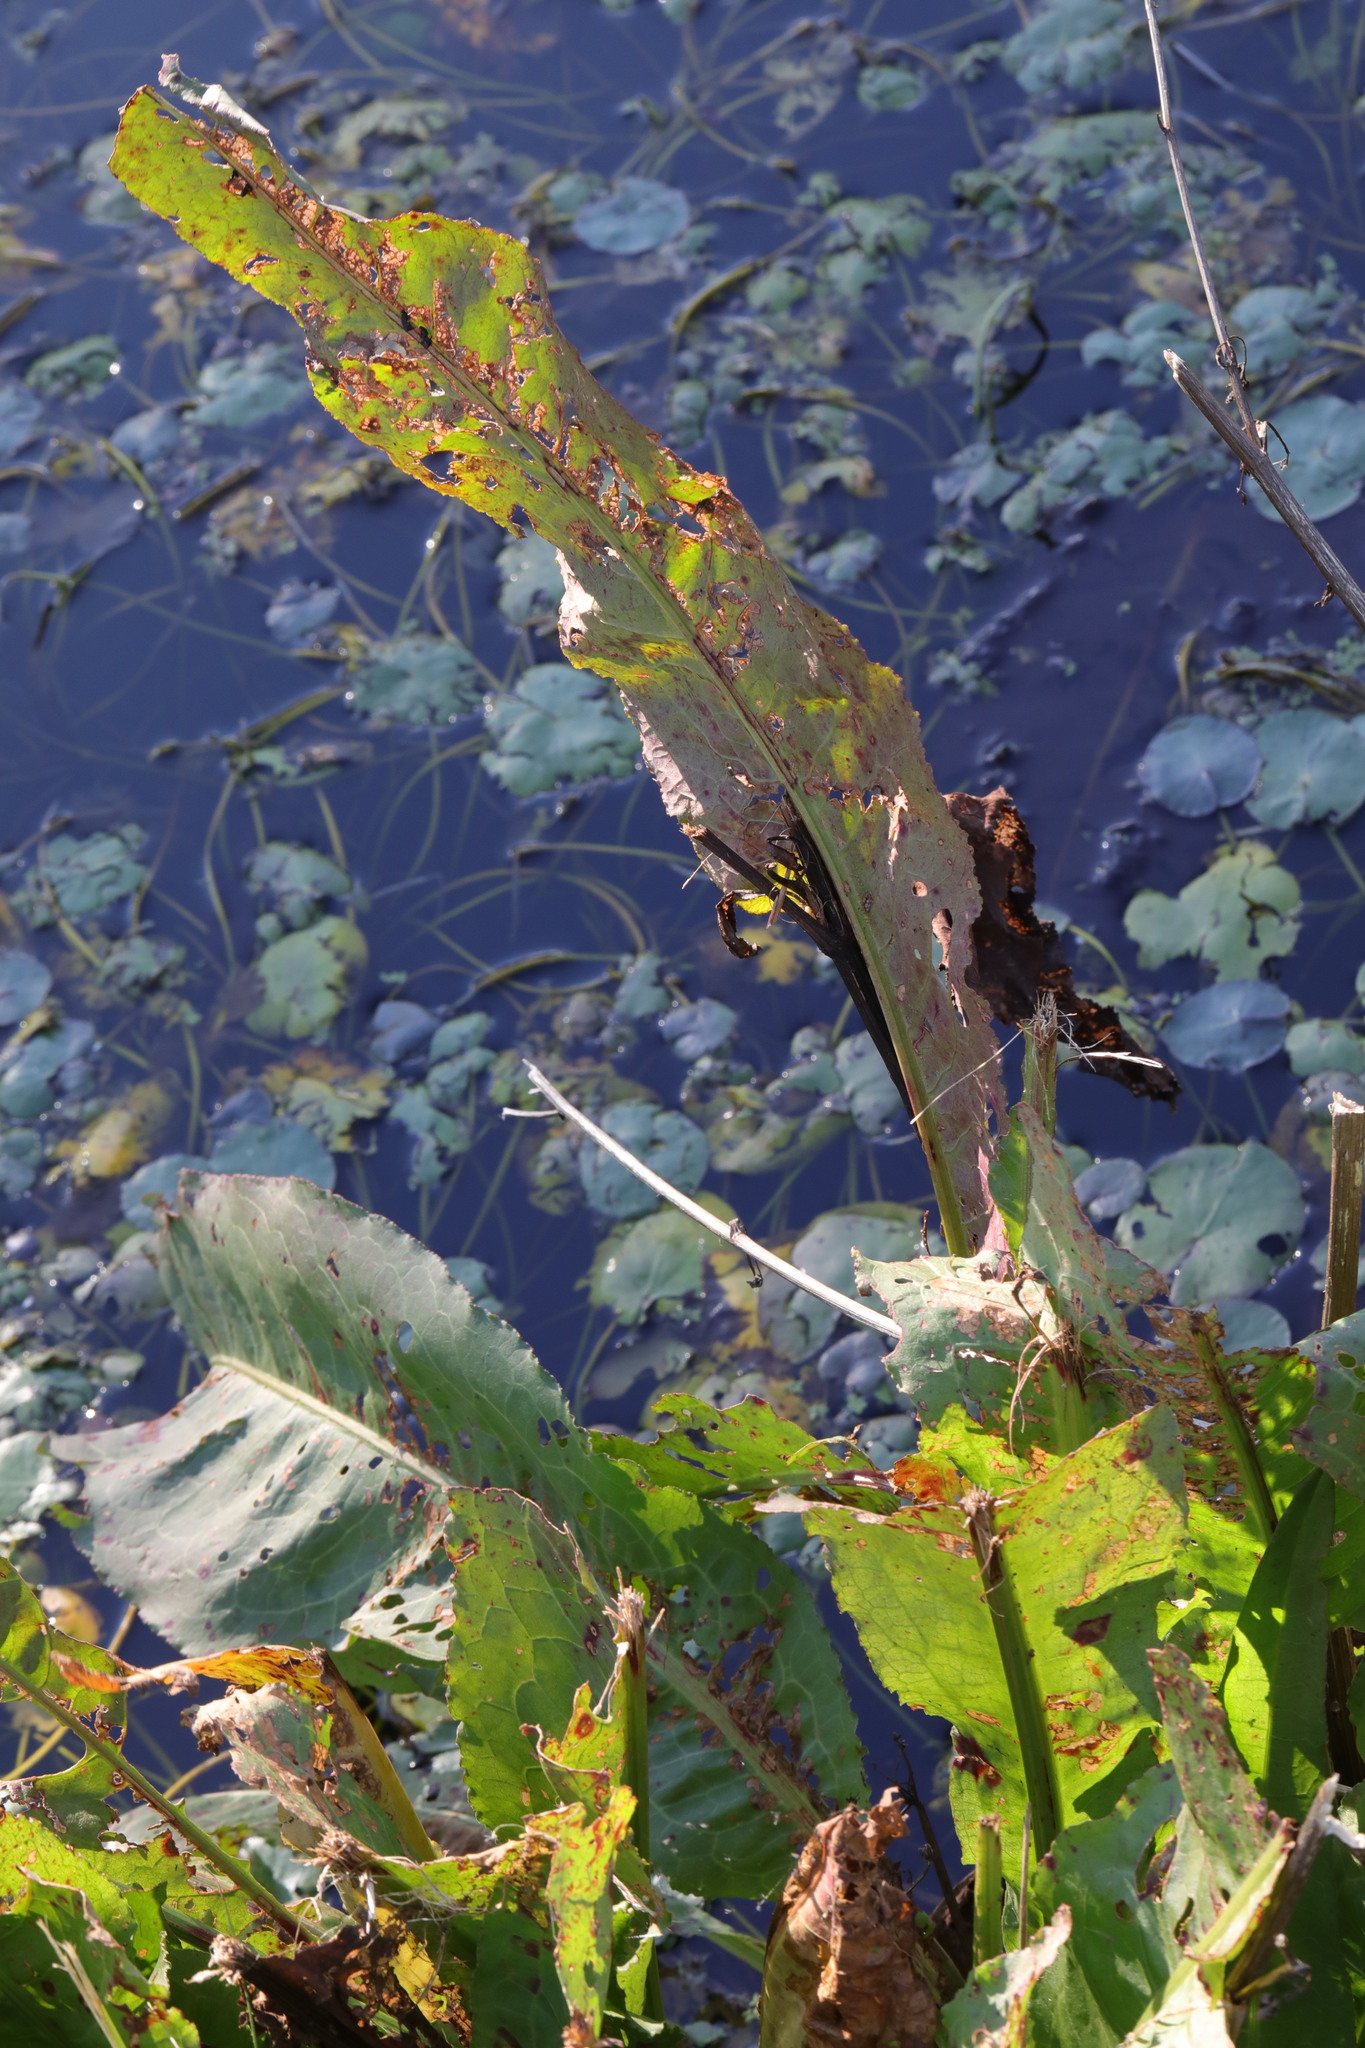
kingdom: Plantae
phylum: Tracheophyta
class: Magnoliopsida
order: Caryophyllales
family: Polygonaceae
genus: Rumex
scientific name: Rumex hydrolapathum
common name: Water dock
